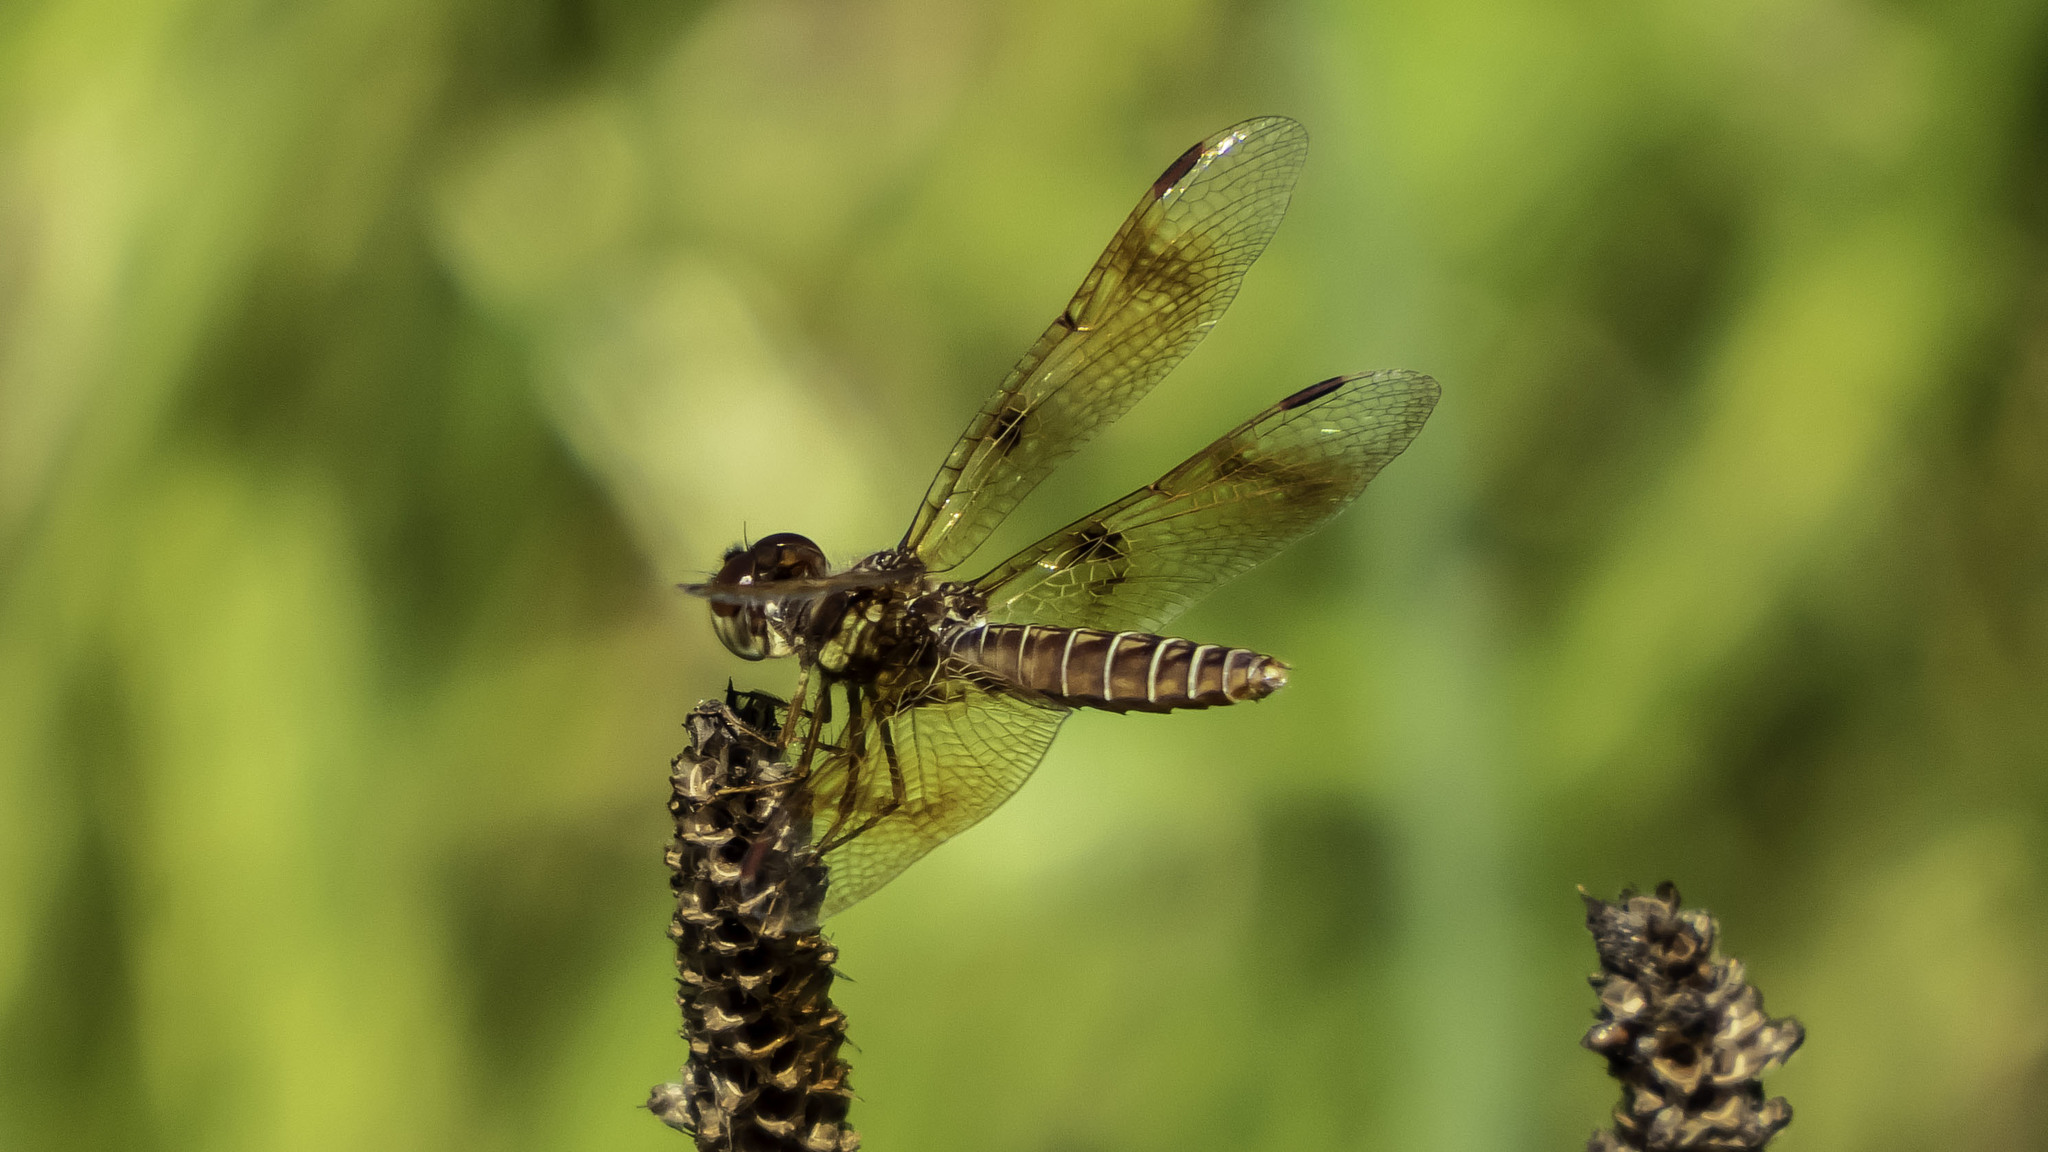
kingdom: Animalia
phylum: Arthropoda
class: Insecta
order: Odonata
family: Libellulidae
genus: Perithemis
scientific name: Perithemis tenera
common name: Eastern amberwing
